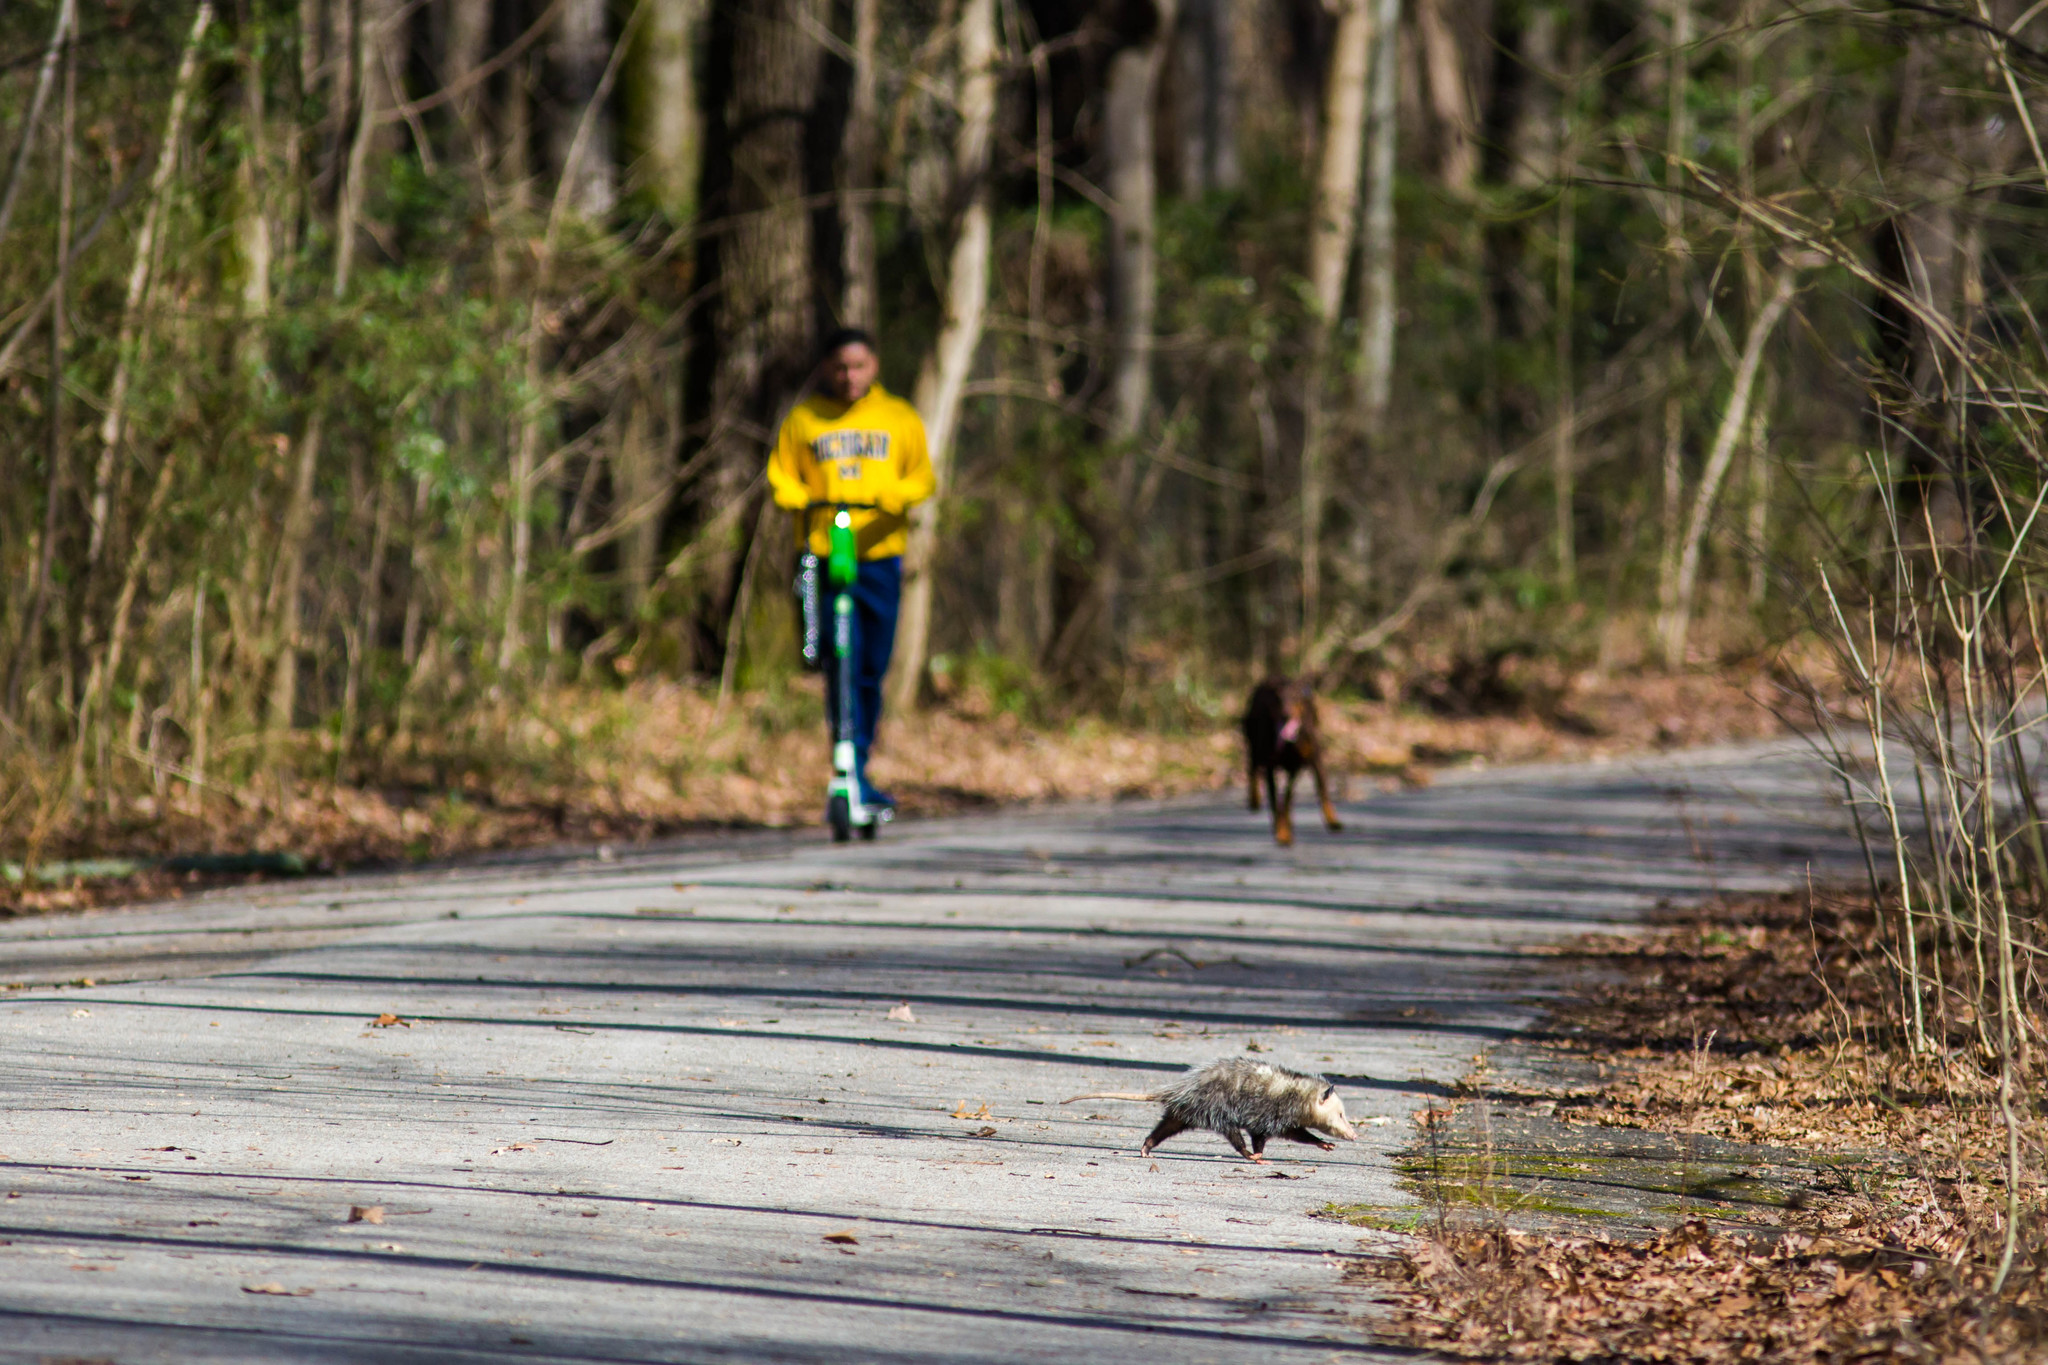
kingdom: Animalia
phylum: Chordata
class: Mammalia
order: Didelphimorphia
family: Didelphidae
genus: Didelphis
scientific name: Didelphis virginiana
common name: Virginia opossum
